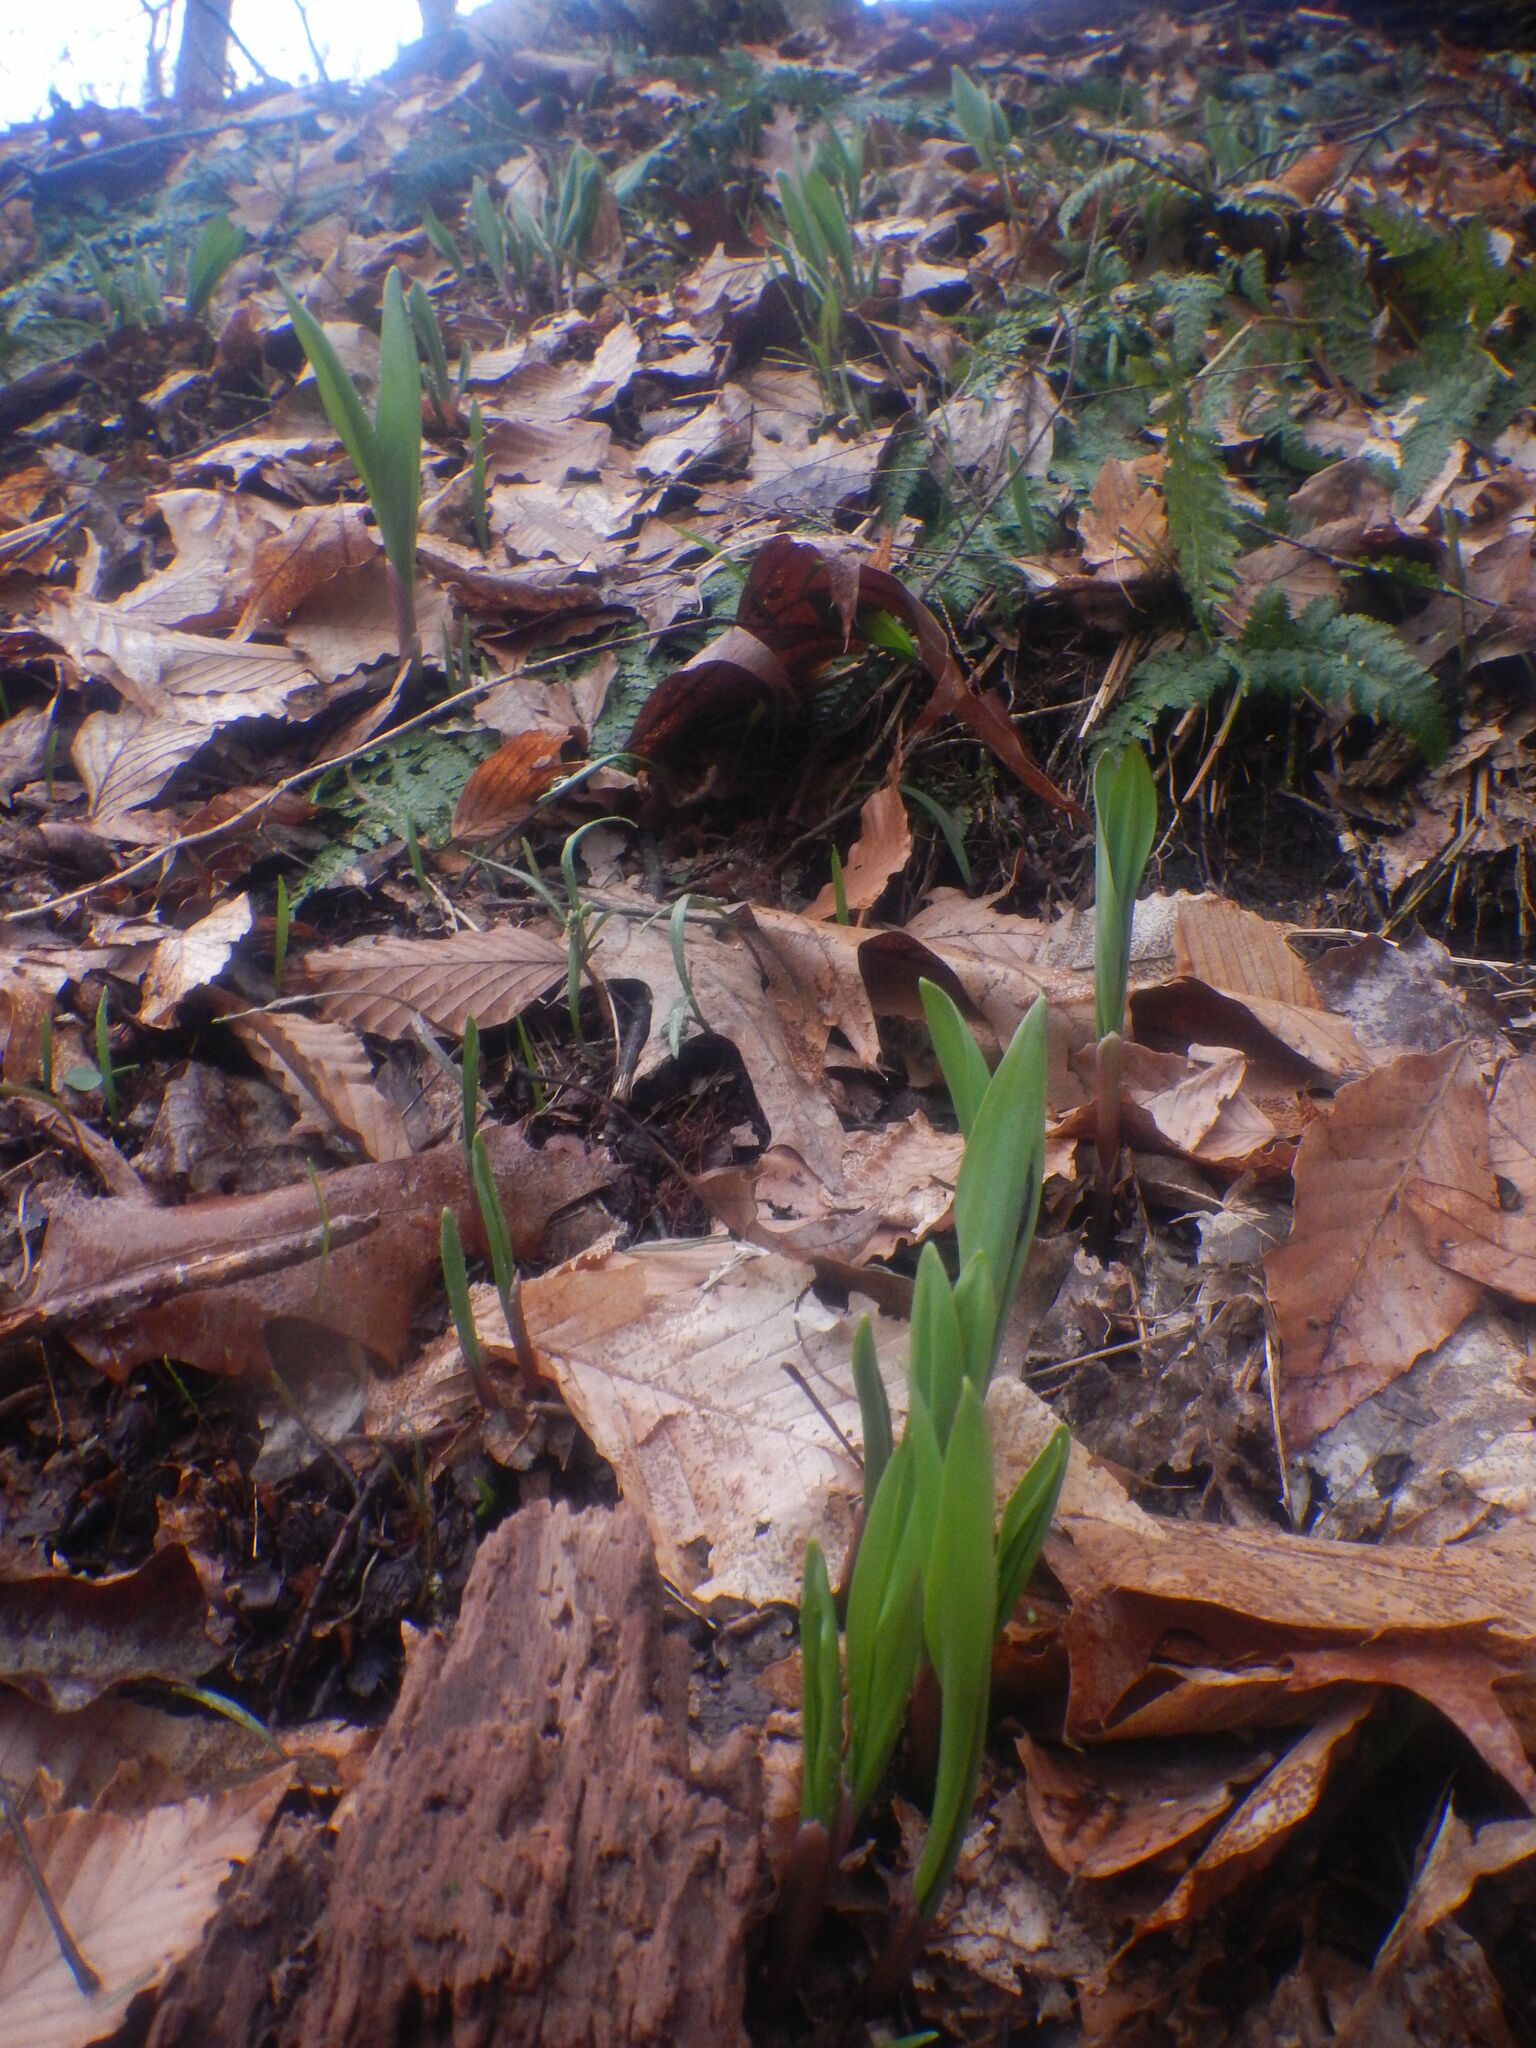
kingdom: Plantae
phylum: Tracheophyta
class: Liliopsida
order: Asparagales
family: Amaryllidaceae
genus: Allium
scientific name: Allium tricoccum
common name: Ramp
